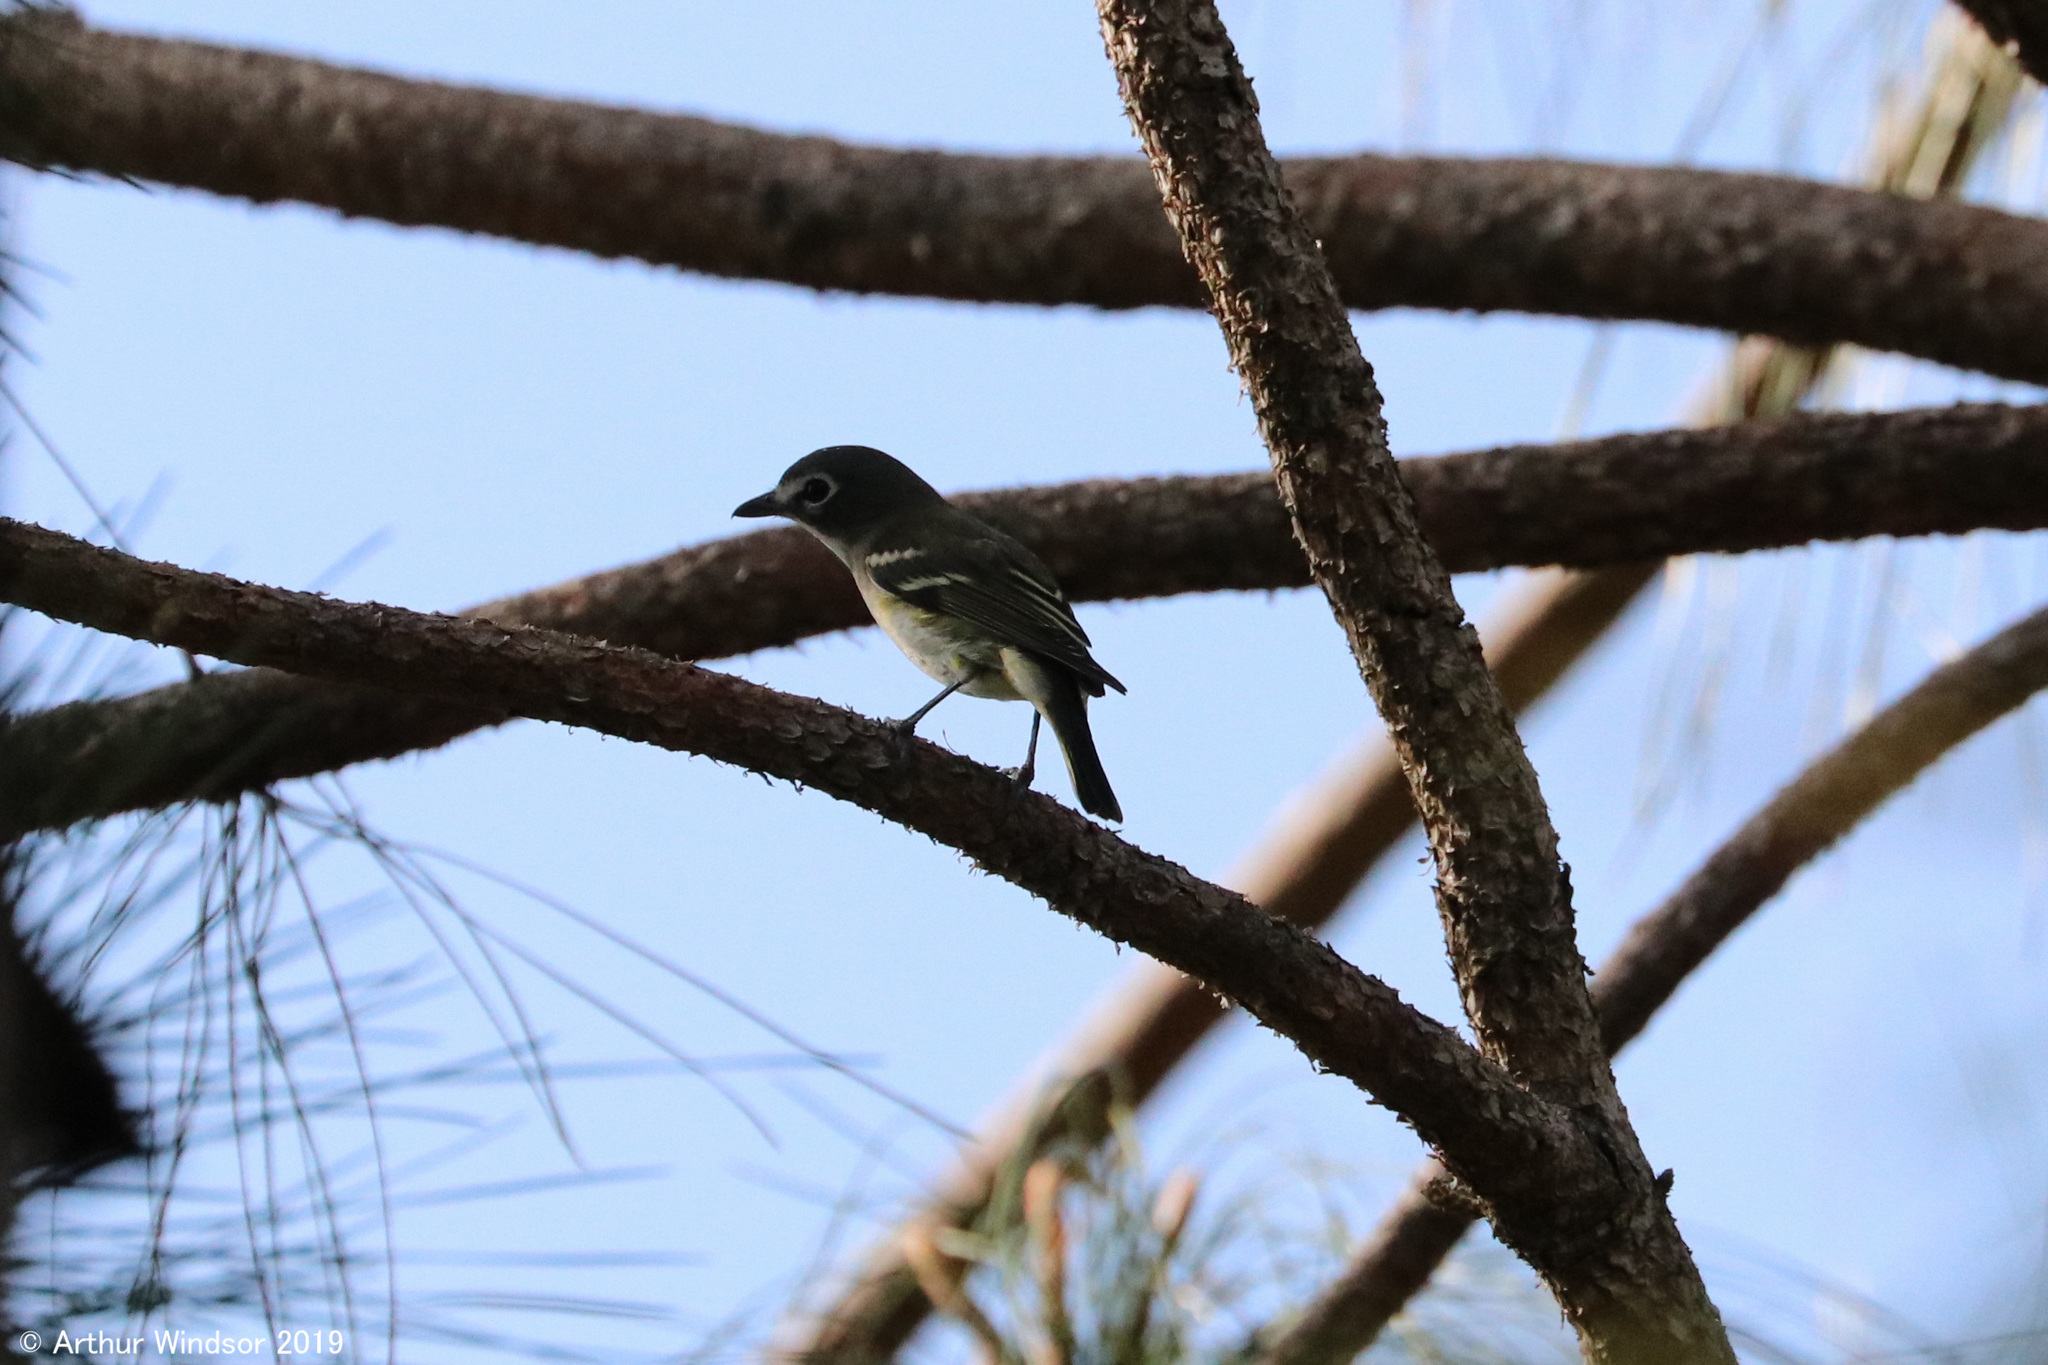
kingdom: Animalia
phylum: Chordata
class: Aves
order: Passeriformes
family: Vireonidae
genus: Vireo
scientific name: Vireo solitarius
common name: Blue-headed vireo
